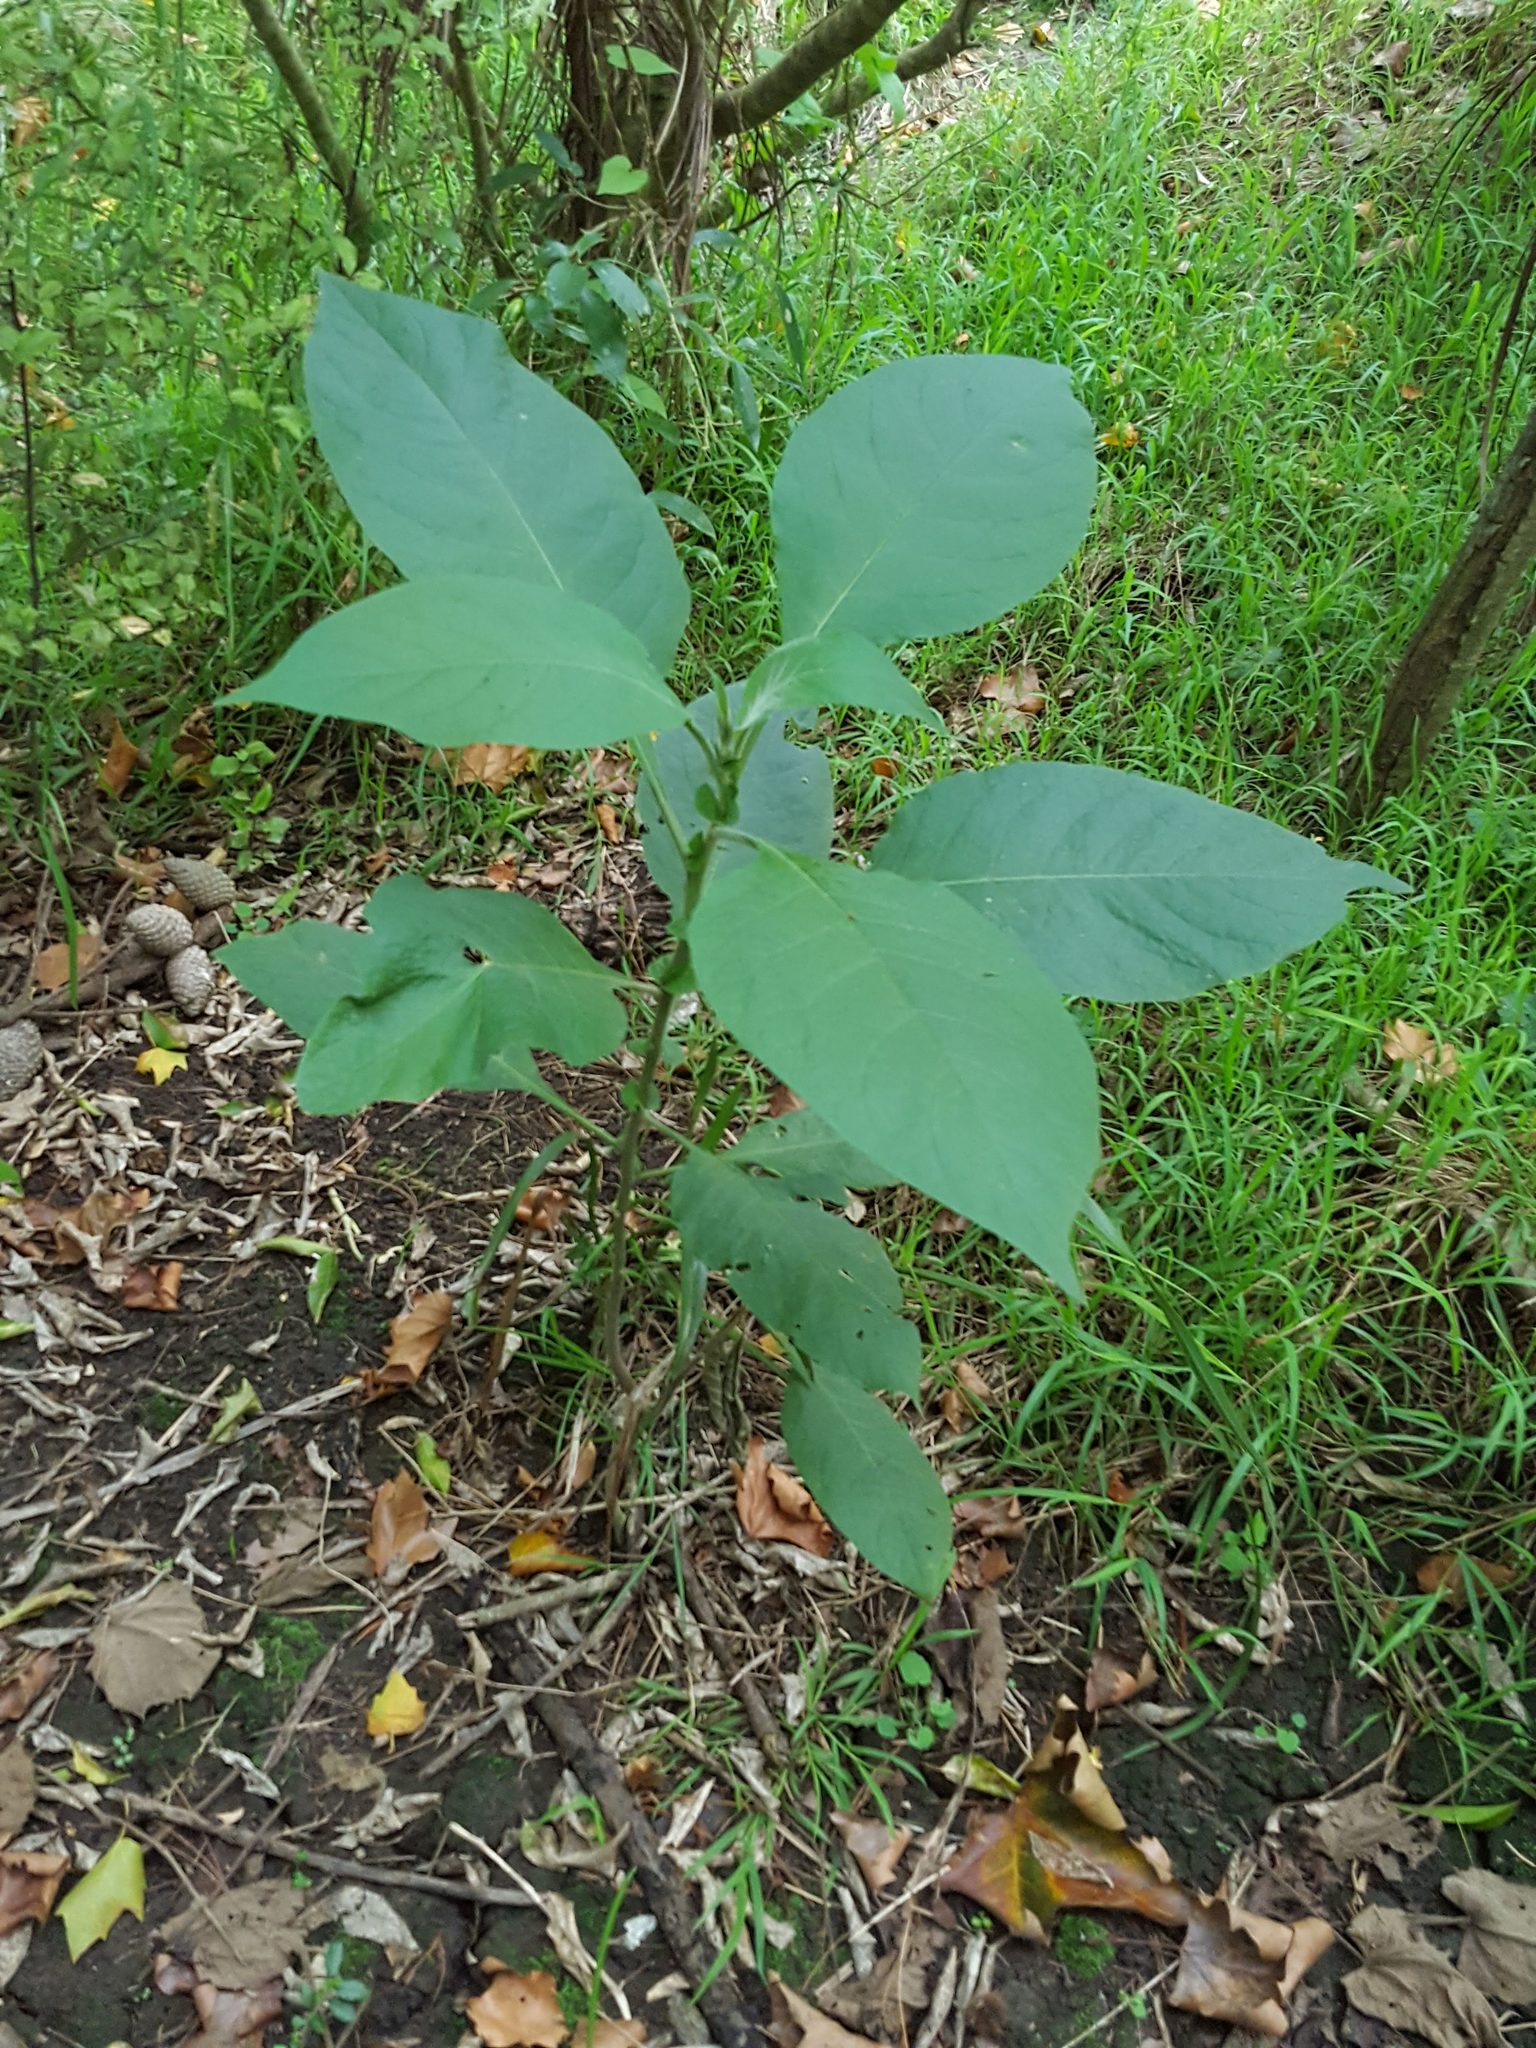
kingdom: Plantae
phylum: Tracheophyta
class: Magnoliopsida
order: Solanales
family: Solanaceae
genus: Solanum
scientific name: Solanum mauritianum
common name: Earleaf nightshade
